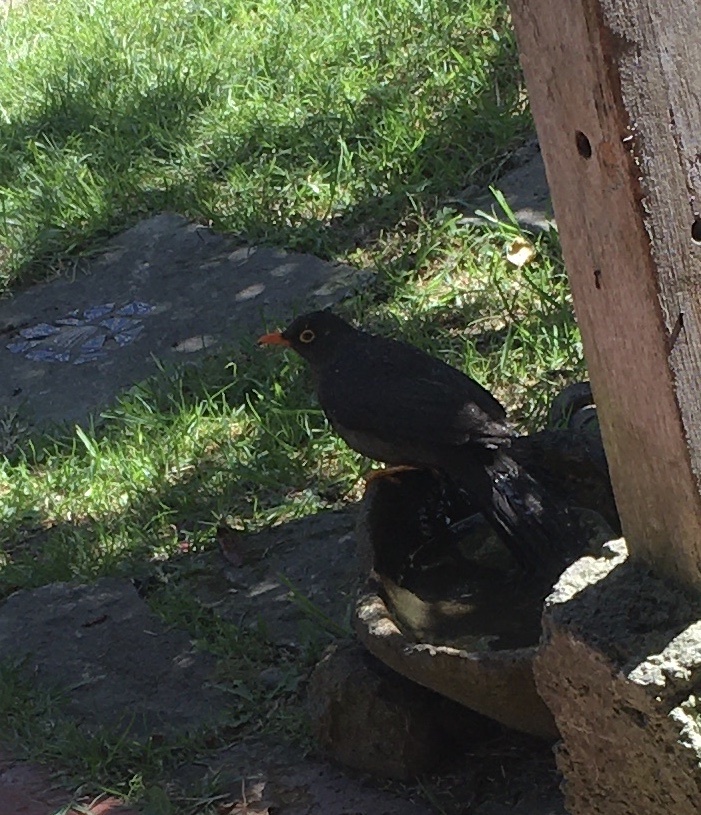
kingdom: Animalia
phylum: Chordata
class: Aves
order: Passeriformes
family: Turdidae
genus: Turdus
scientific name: Turdus fuscater
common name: Great thrush
